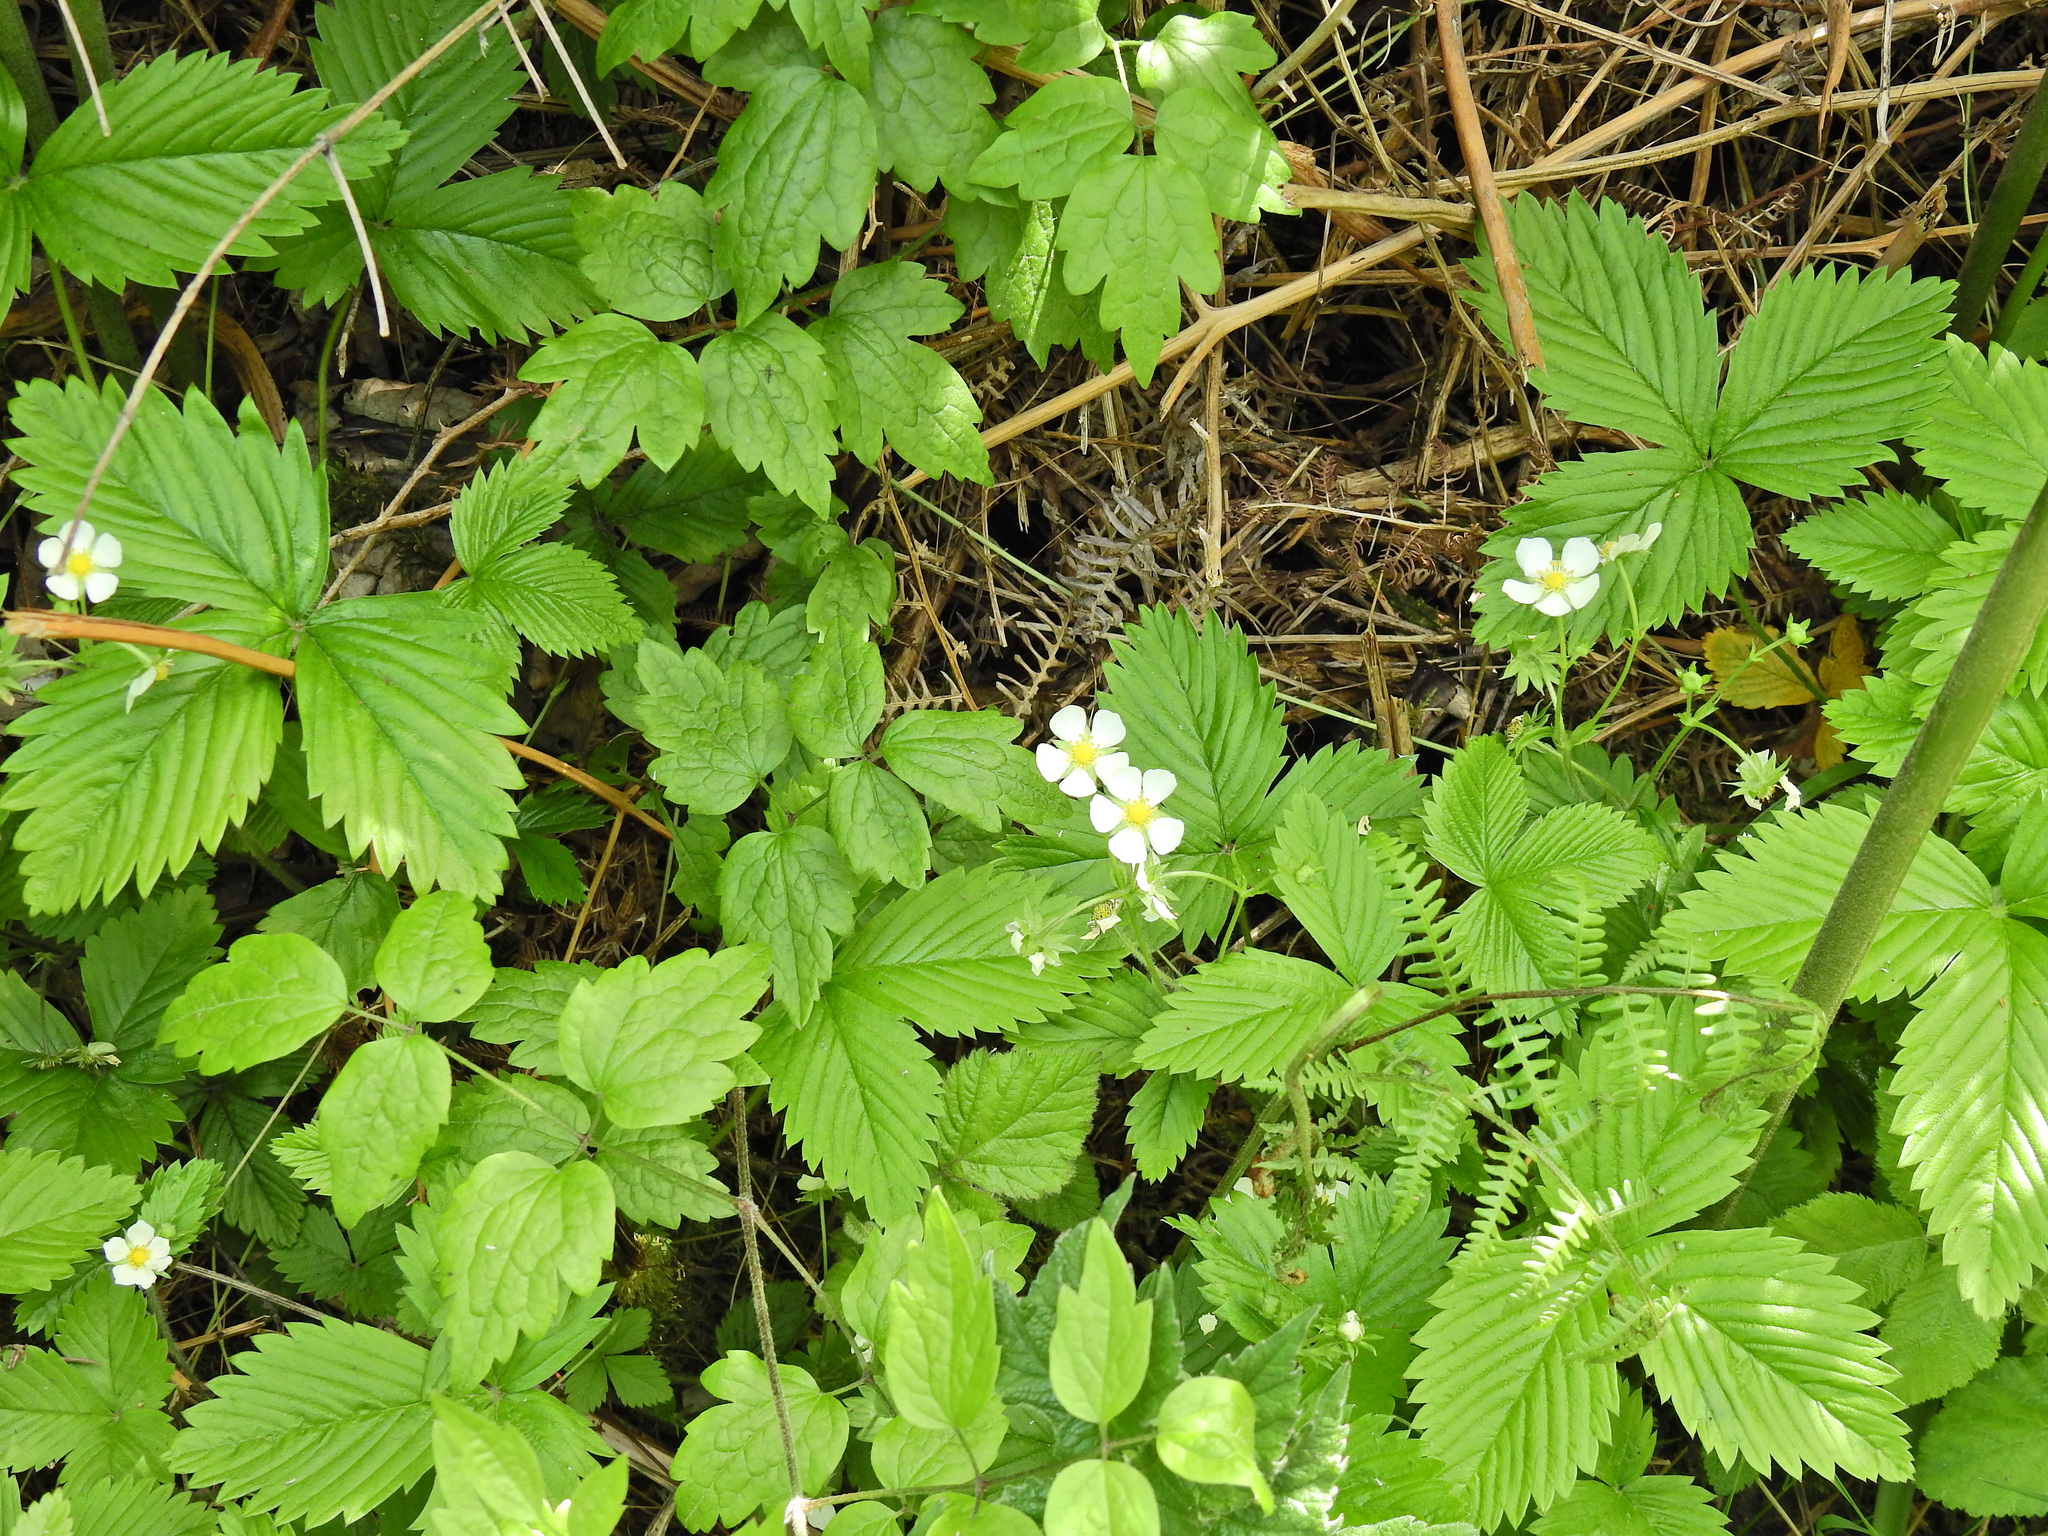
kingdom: Plantae
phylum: Tracheophyta
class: Magnoliopsida
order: Rosales
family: Rosaceae
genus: Fragaria
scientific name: Fragaria vesca
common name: Wild strawberry
